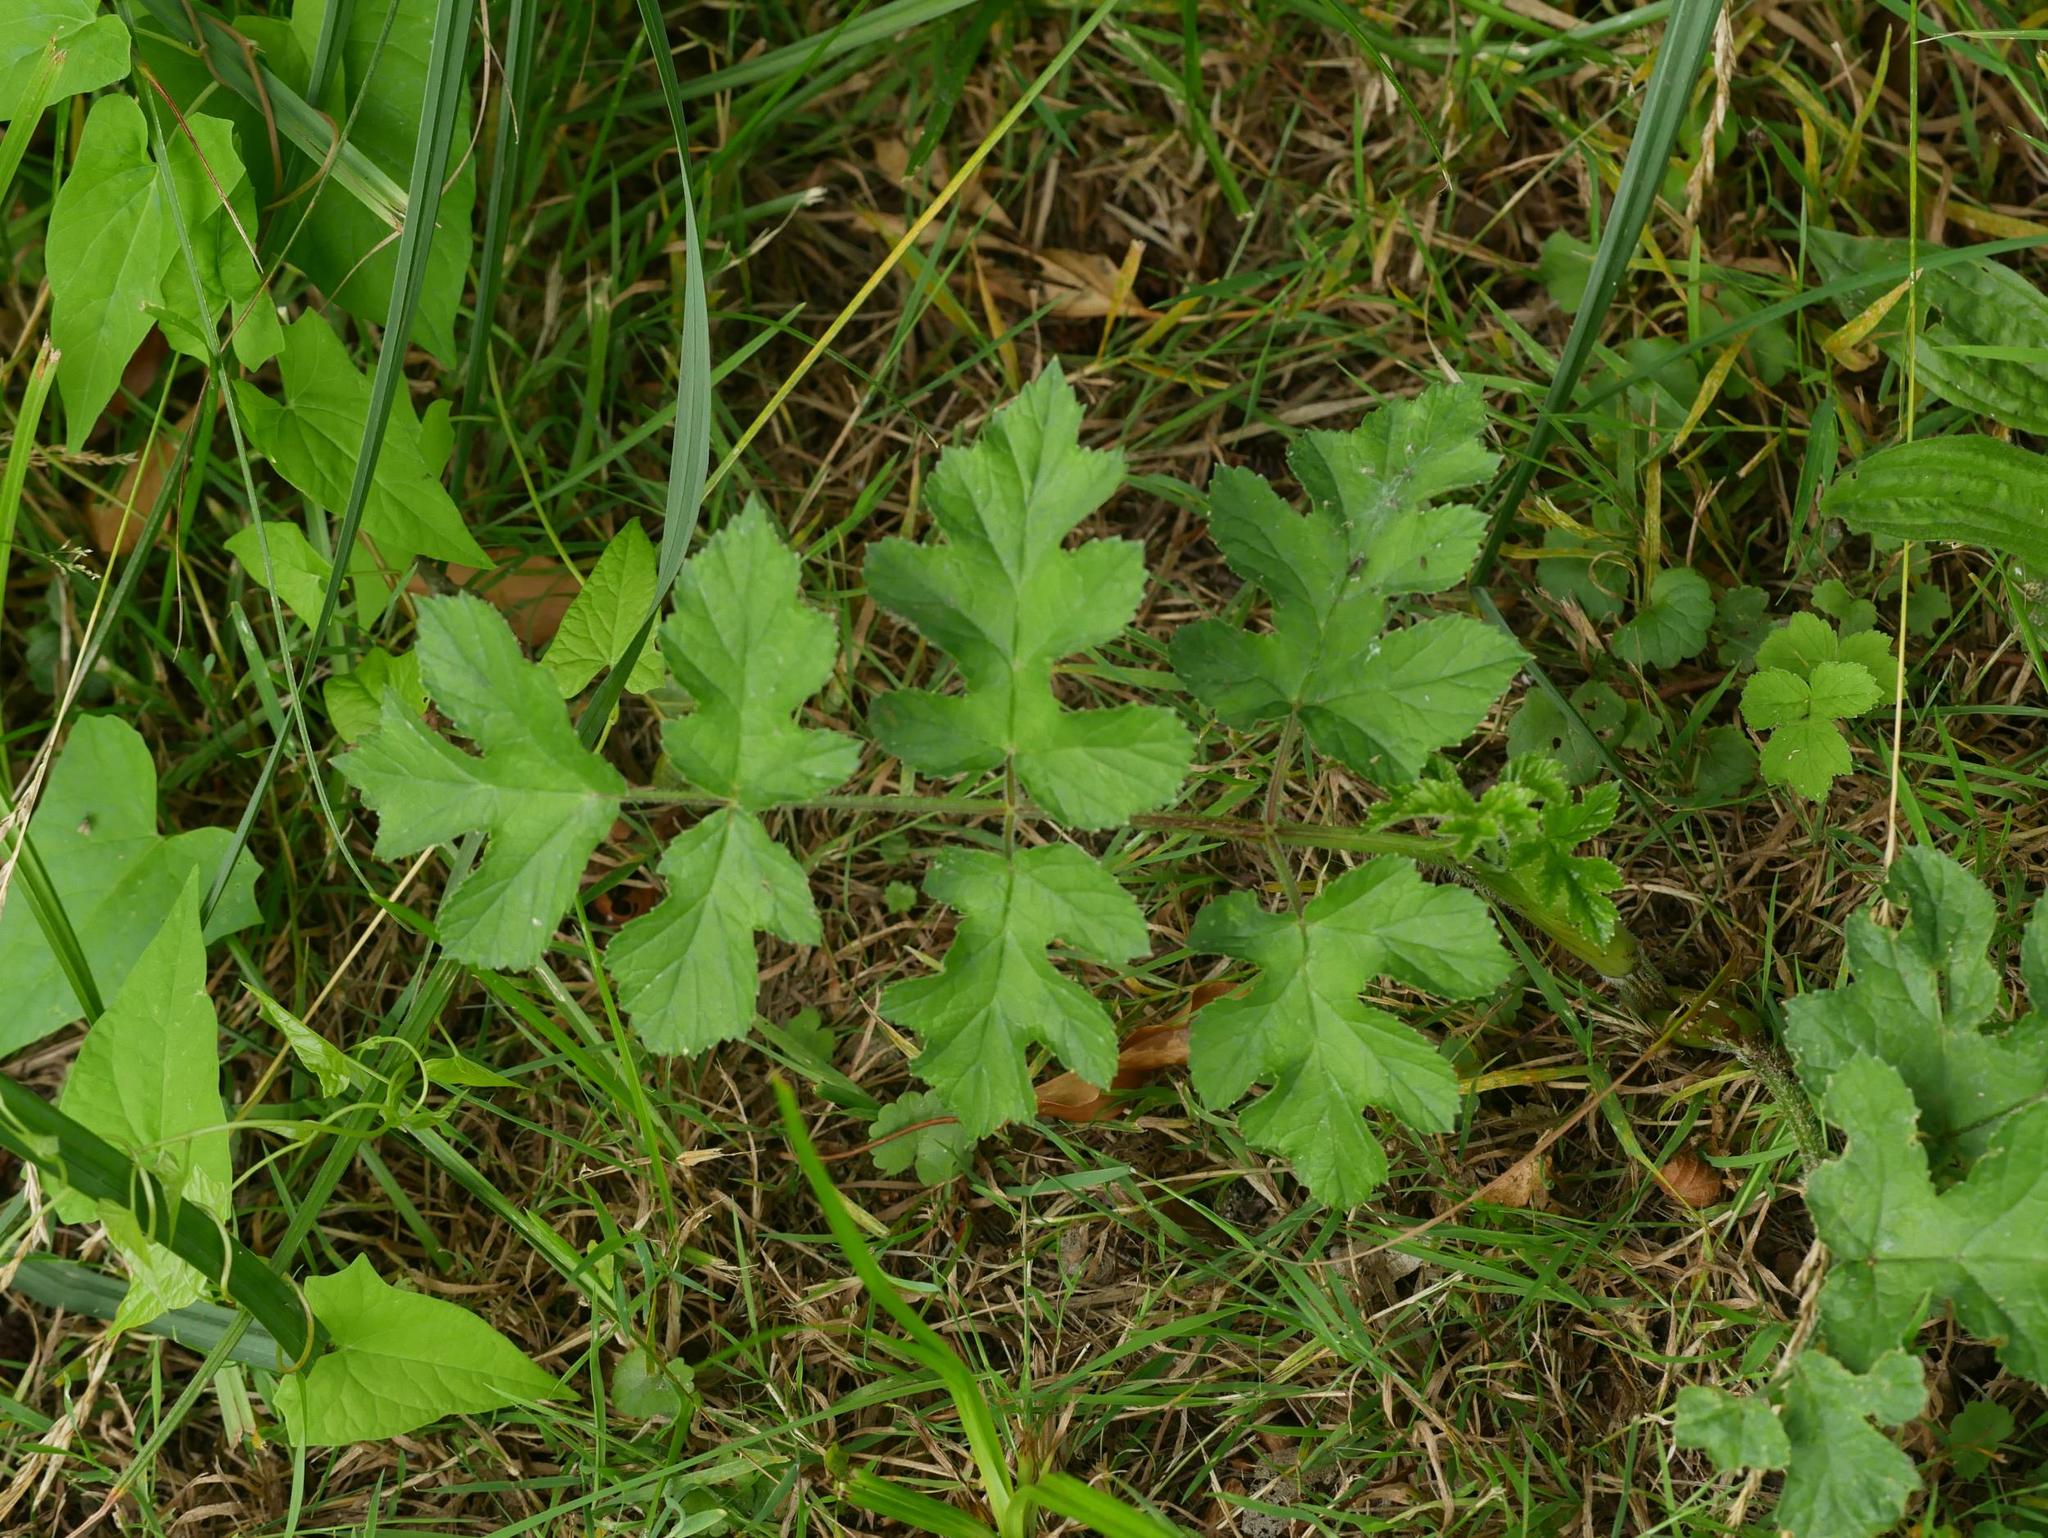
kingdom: Plantae
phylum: Tracheophyta
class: Magnoliopsida
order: Apiales
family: Apiaceae
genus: Heracleum
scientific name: Heracleum sphondylium
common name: Hogweed
